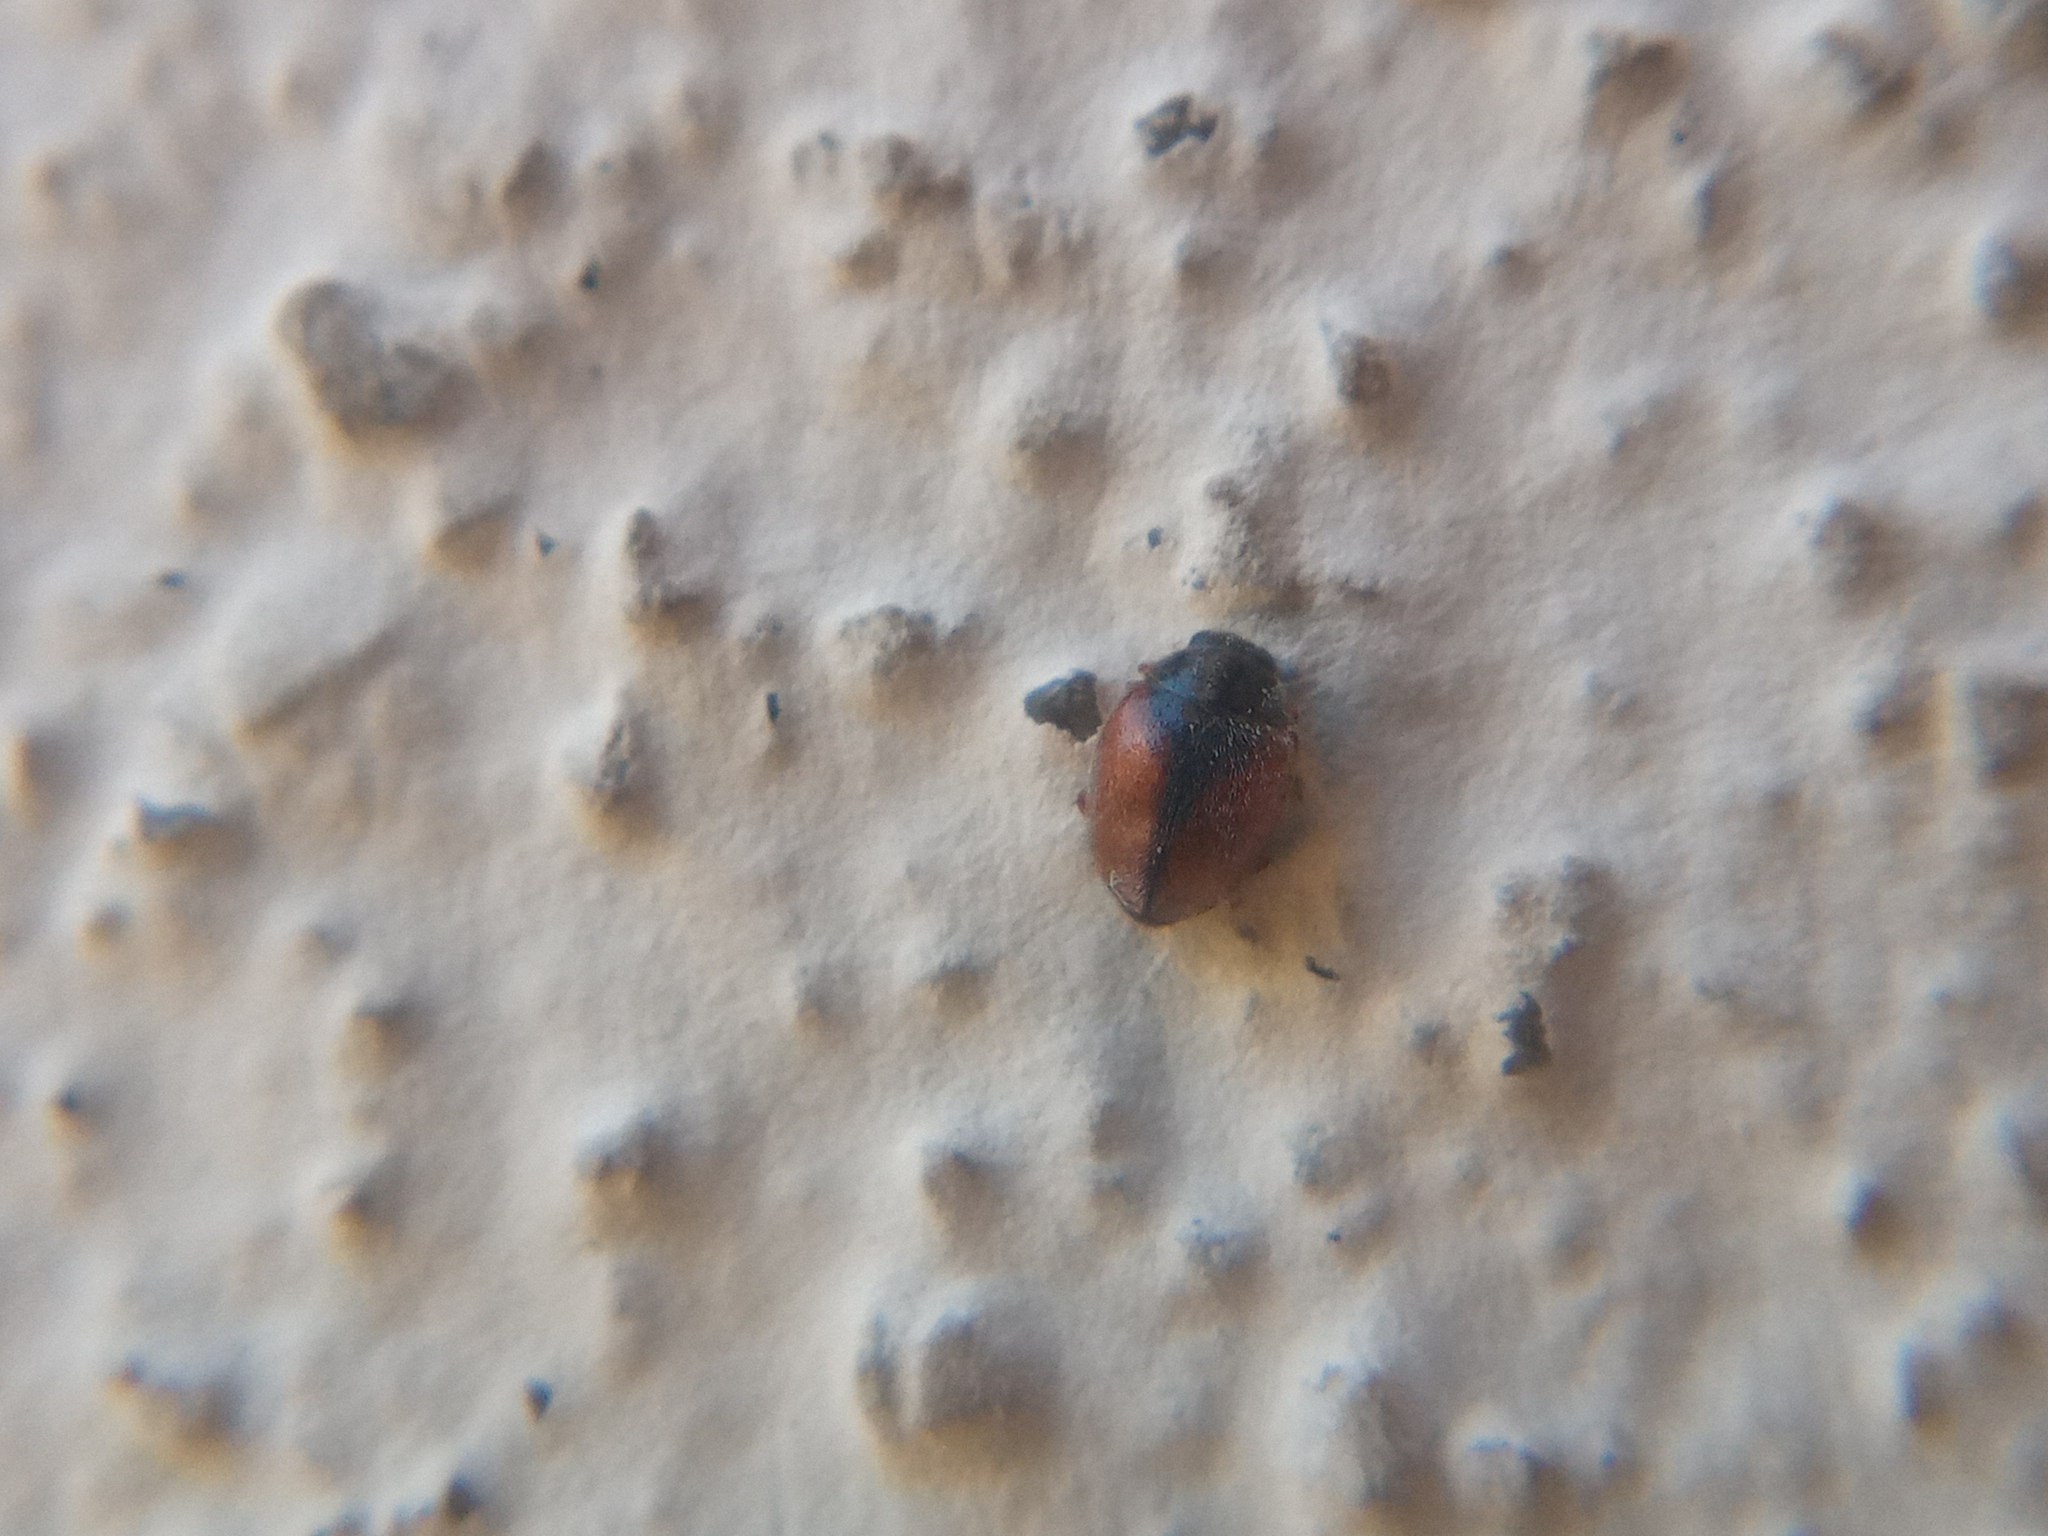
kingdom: Animalia
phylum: Arthropoda
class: Insecta
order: Coleoptera
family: Coccinellidae
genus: Scymnus
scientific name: Scymnus interruptus
